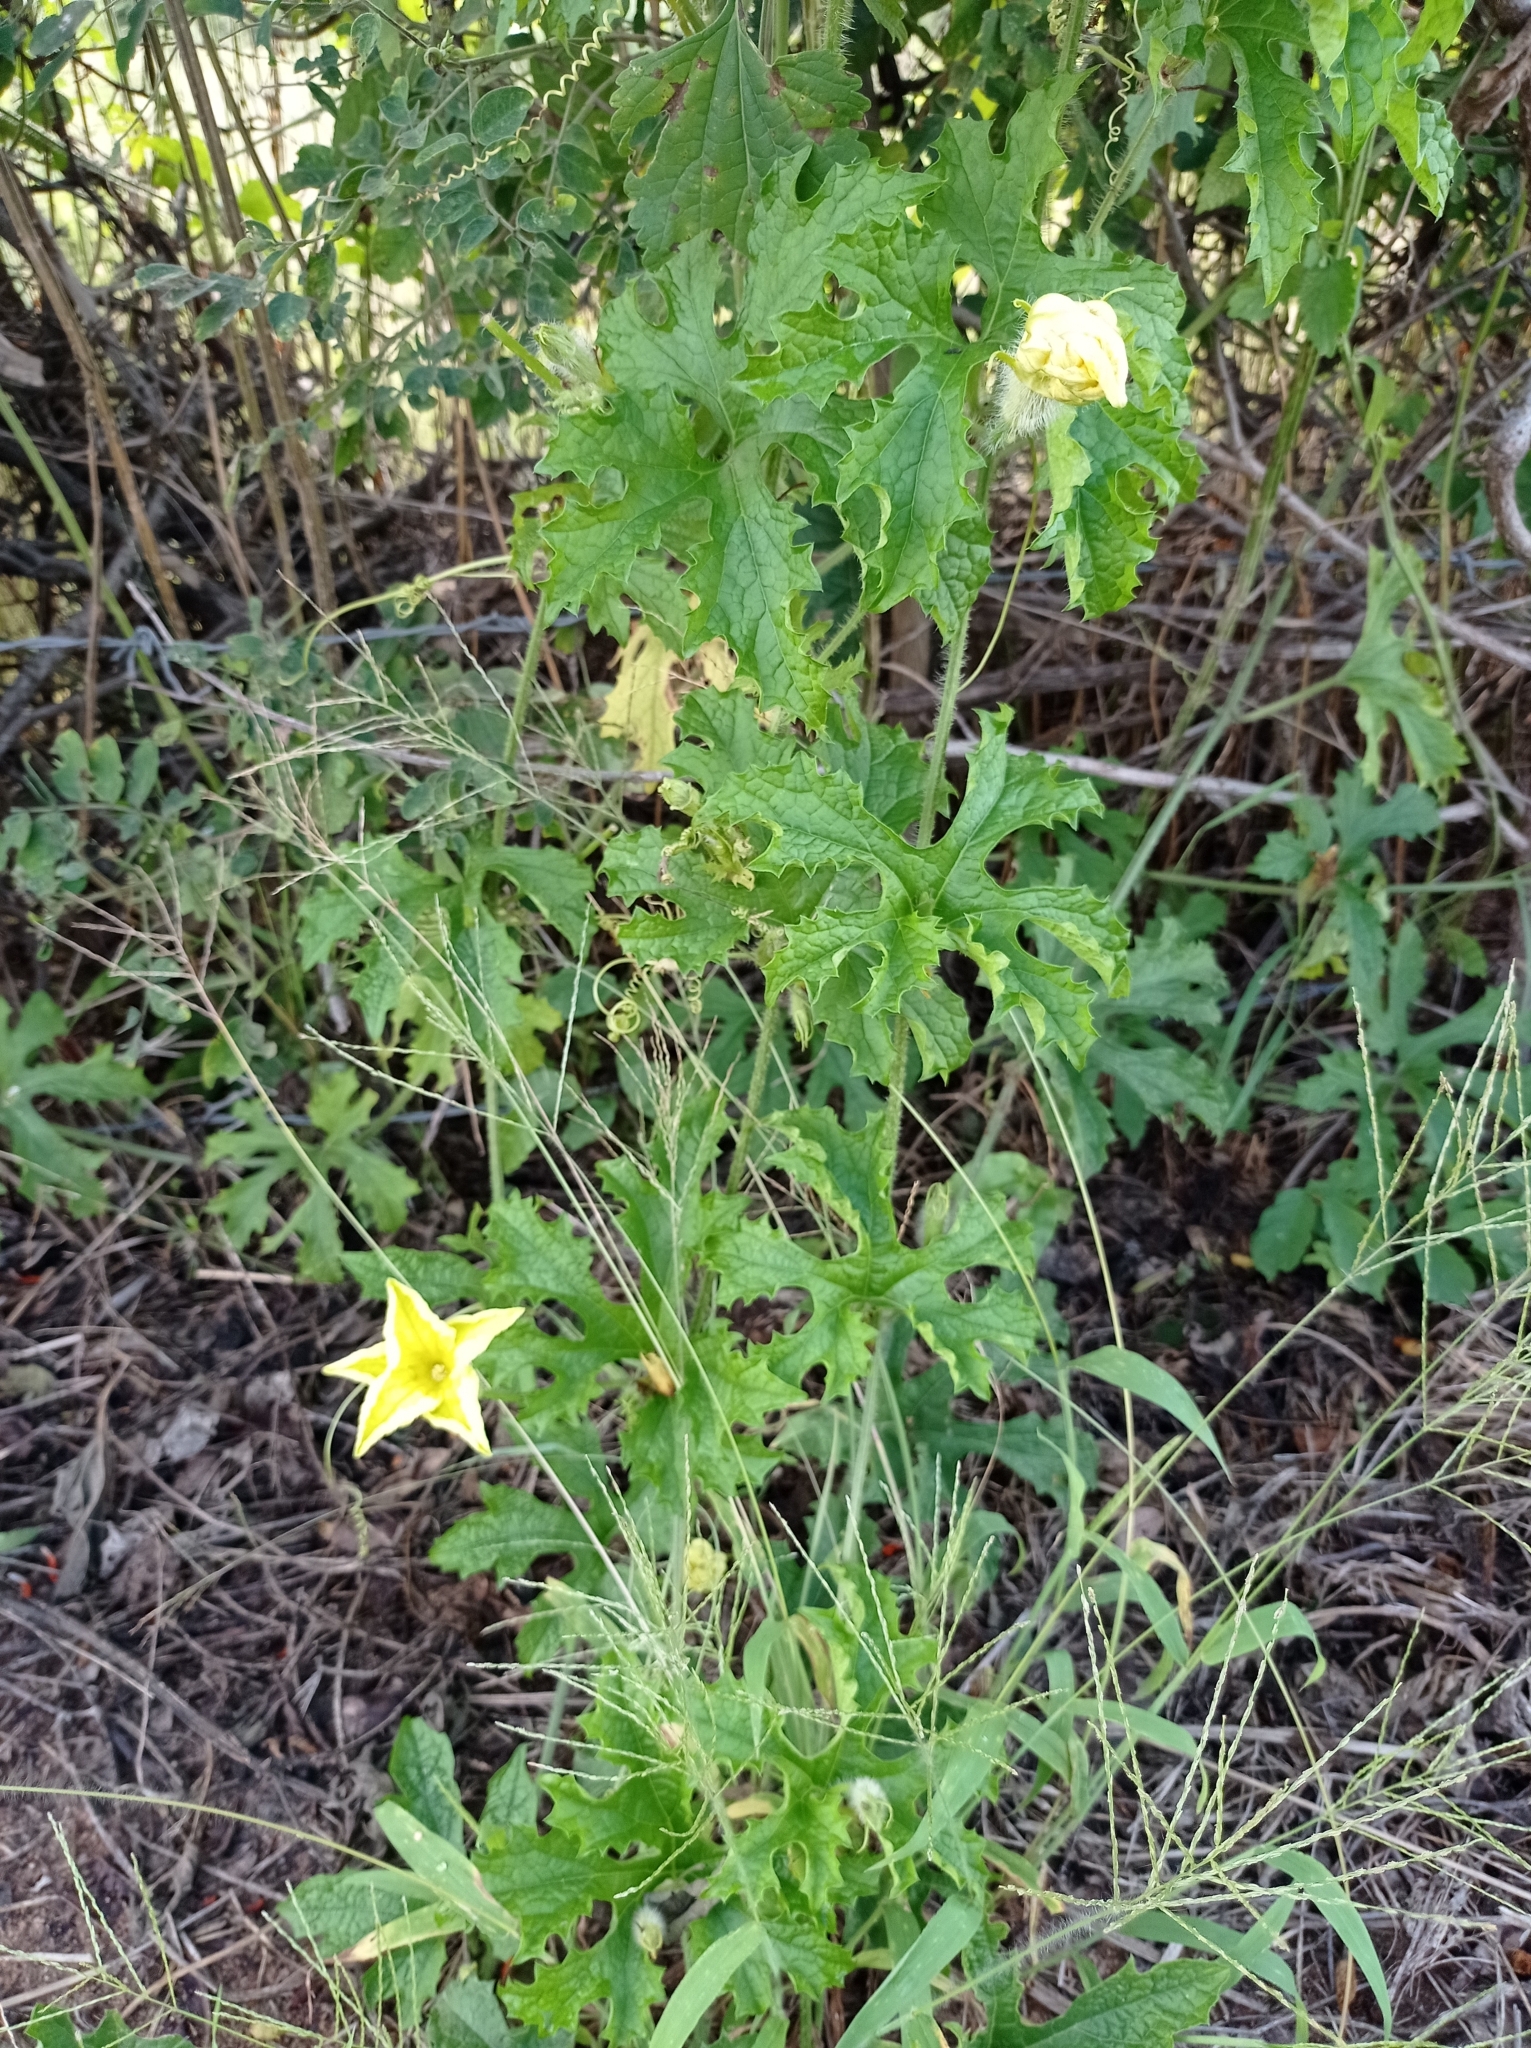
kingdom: Plantae
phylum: Tracheophyta
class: Magnoliopsida
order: Cucurbitales
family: Cucurbitaceae
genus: Momordica
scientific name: Momordica charantia
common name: Balsampear
